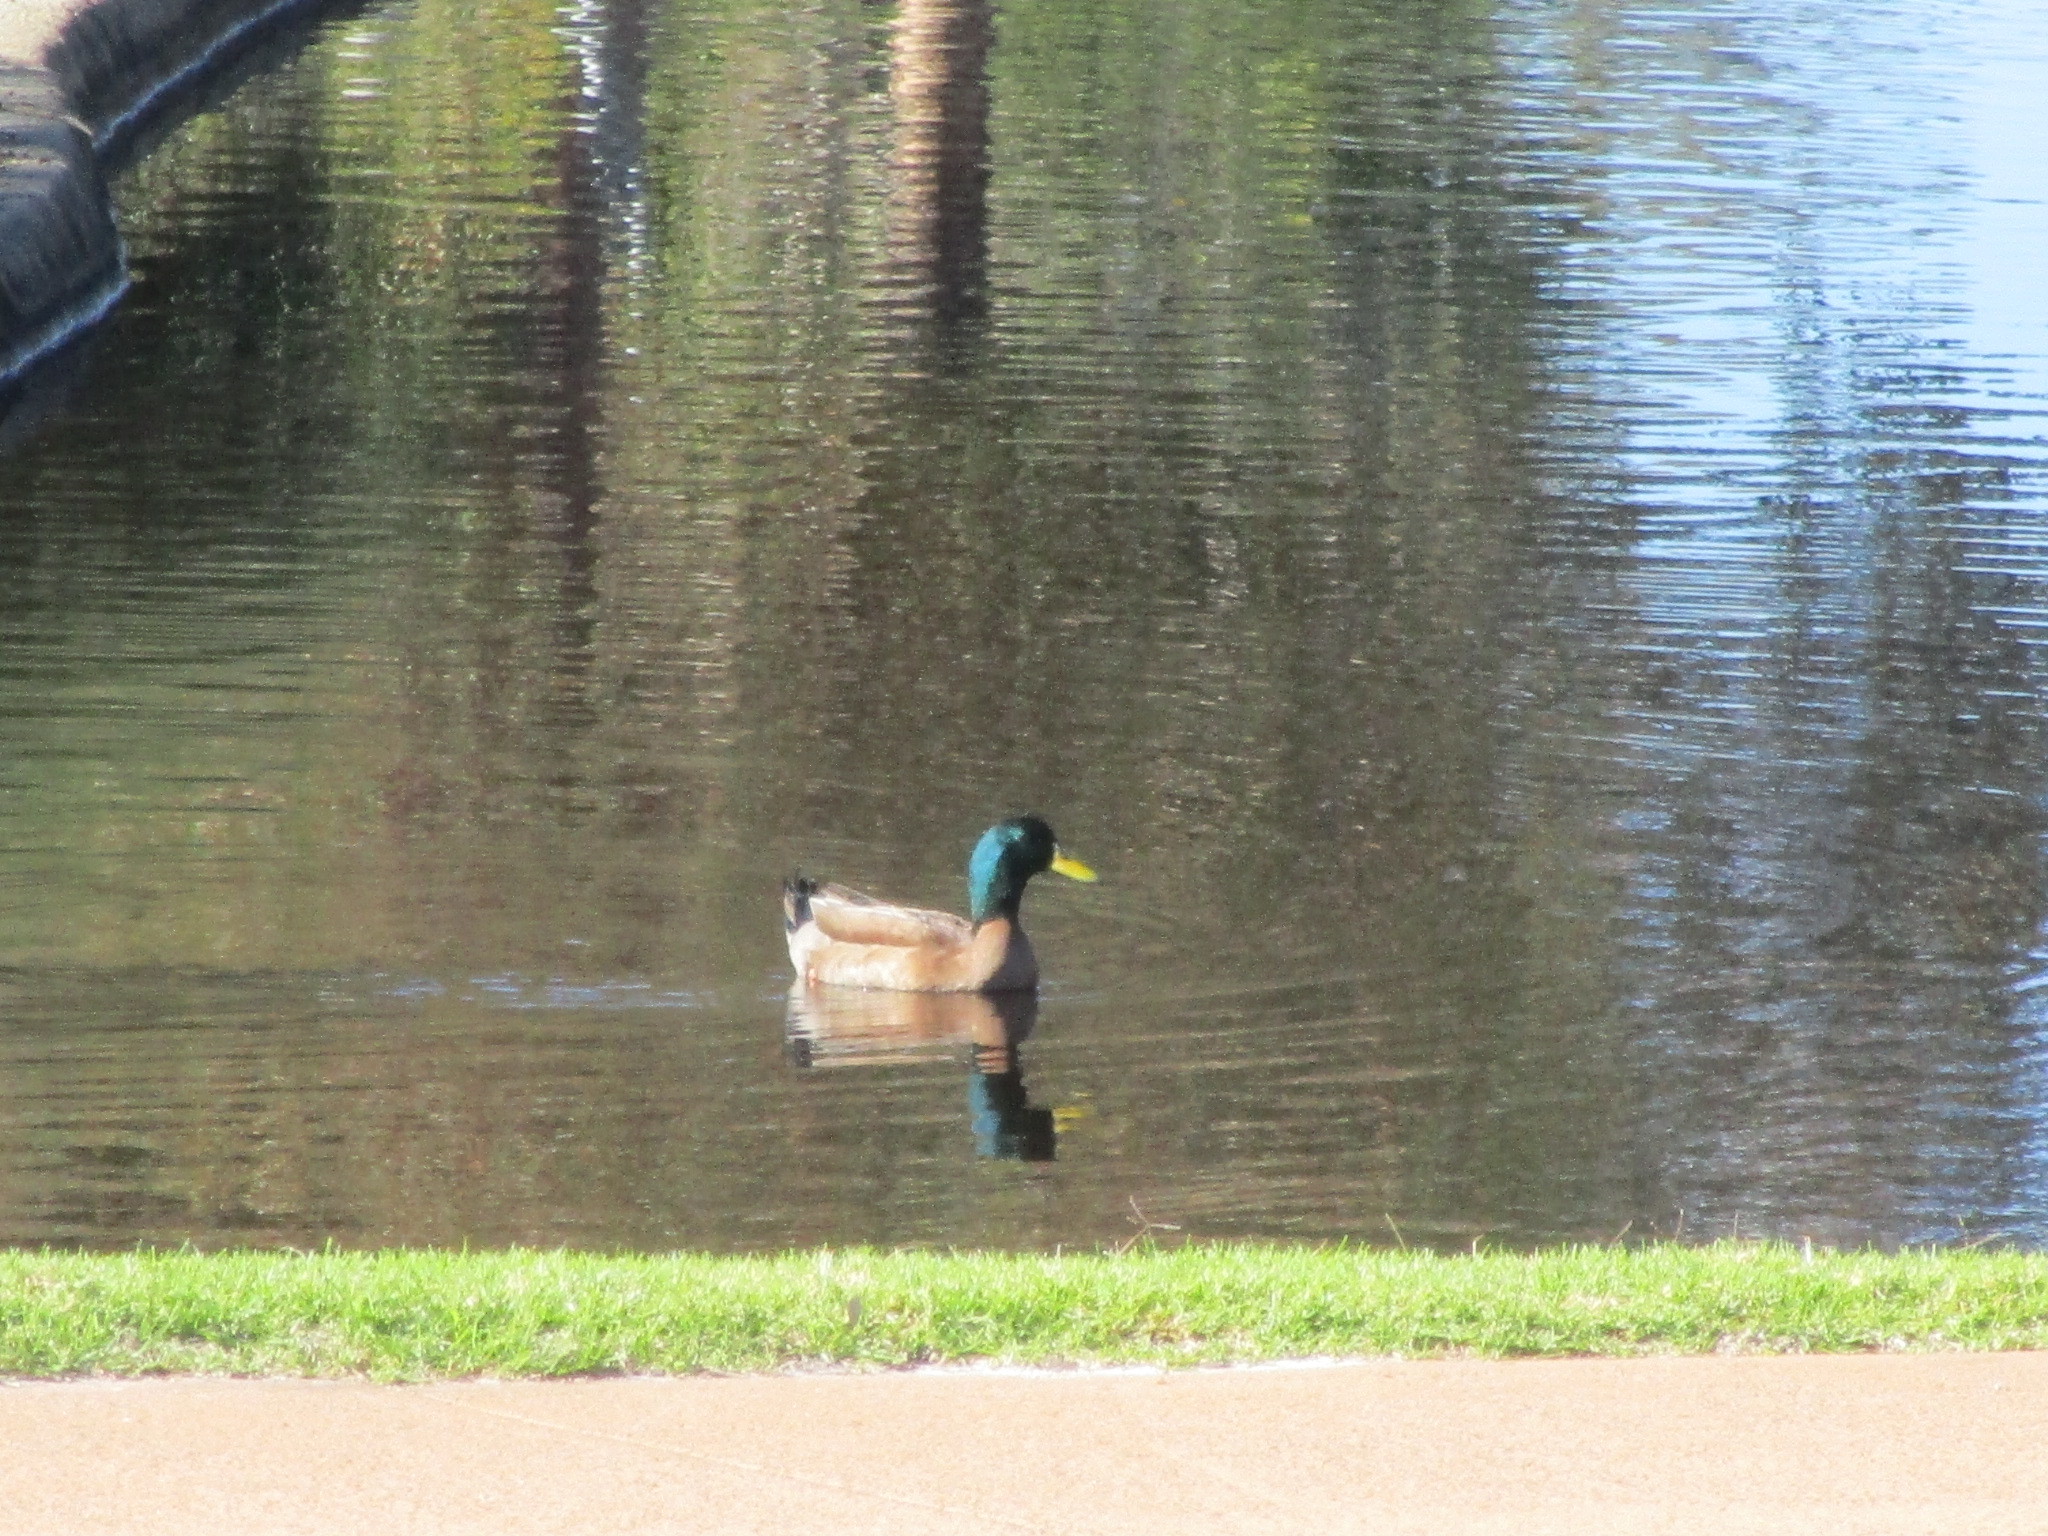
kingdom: Animalia
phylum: Chordata
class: Aves
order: Anseriformes
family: Anatidae
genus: Anas
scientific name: Anas platyrhynchos
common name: Mallard
